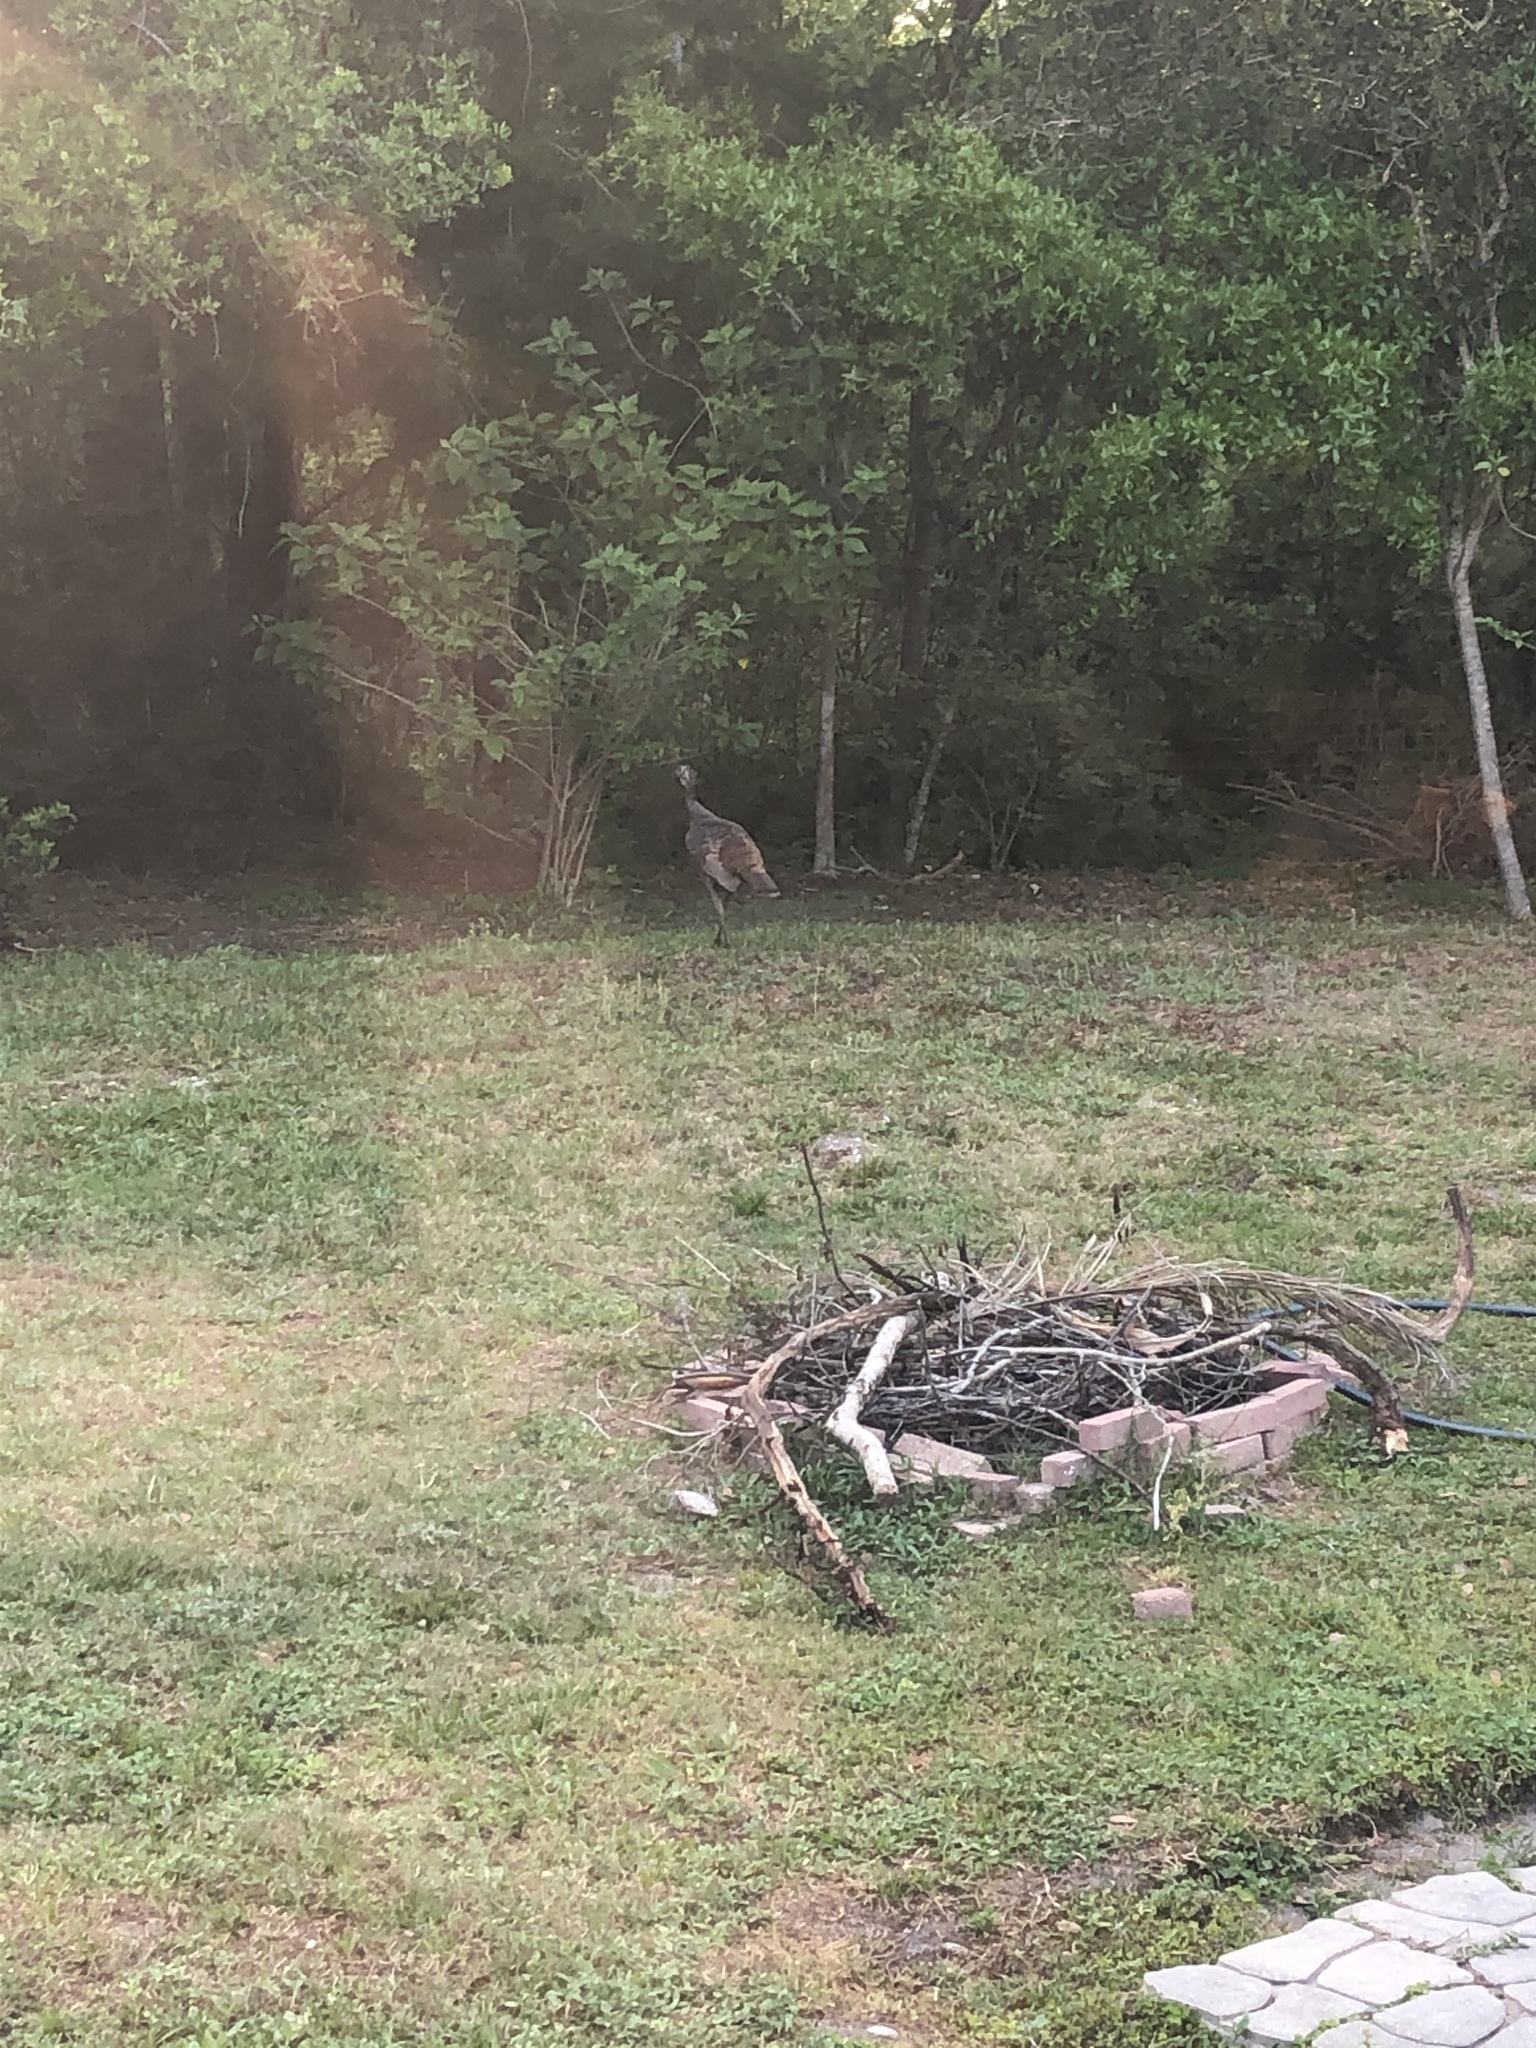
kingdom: Animalia
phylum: Chordata
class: Aves
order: Galliformes
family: Phasianidae
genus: Meleagris
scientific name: Meleagris gallopavo
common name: Wild turkey
